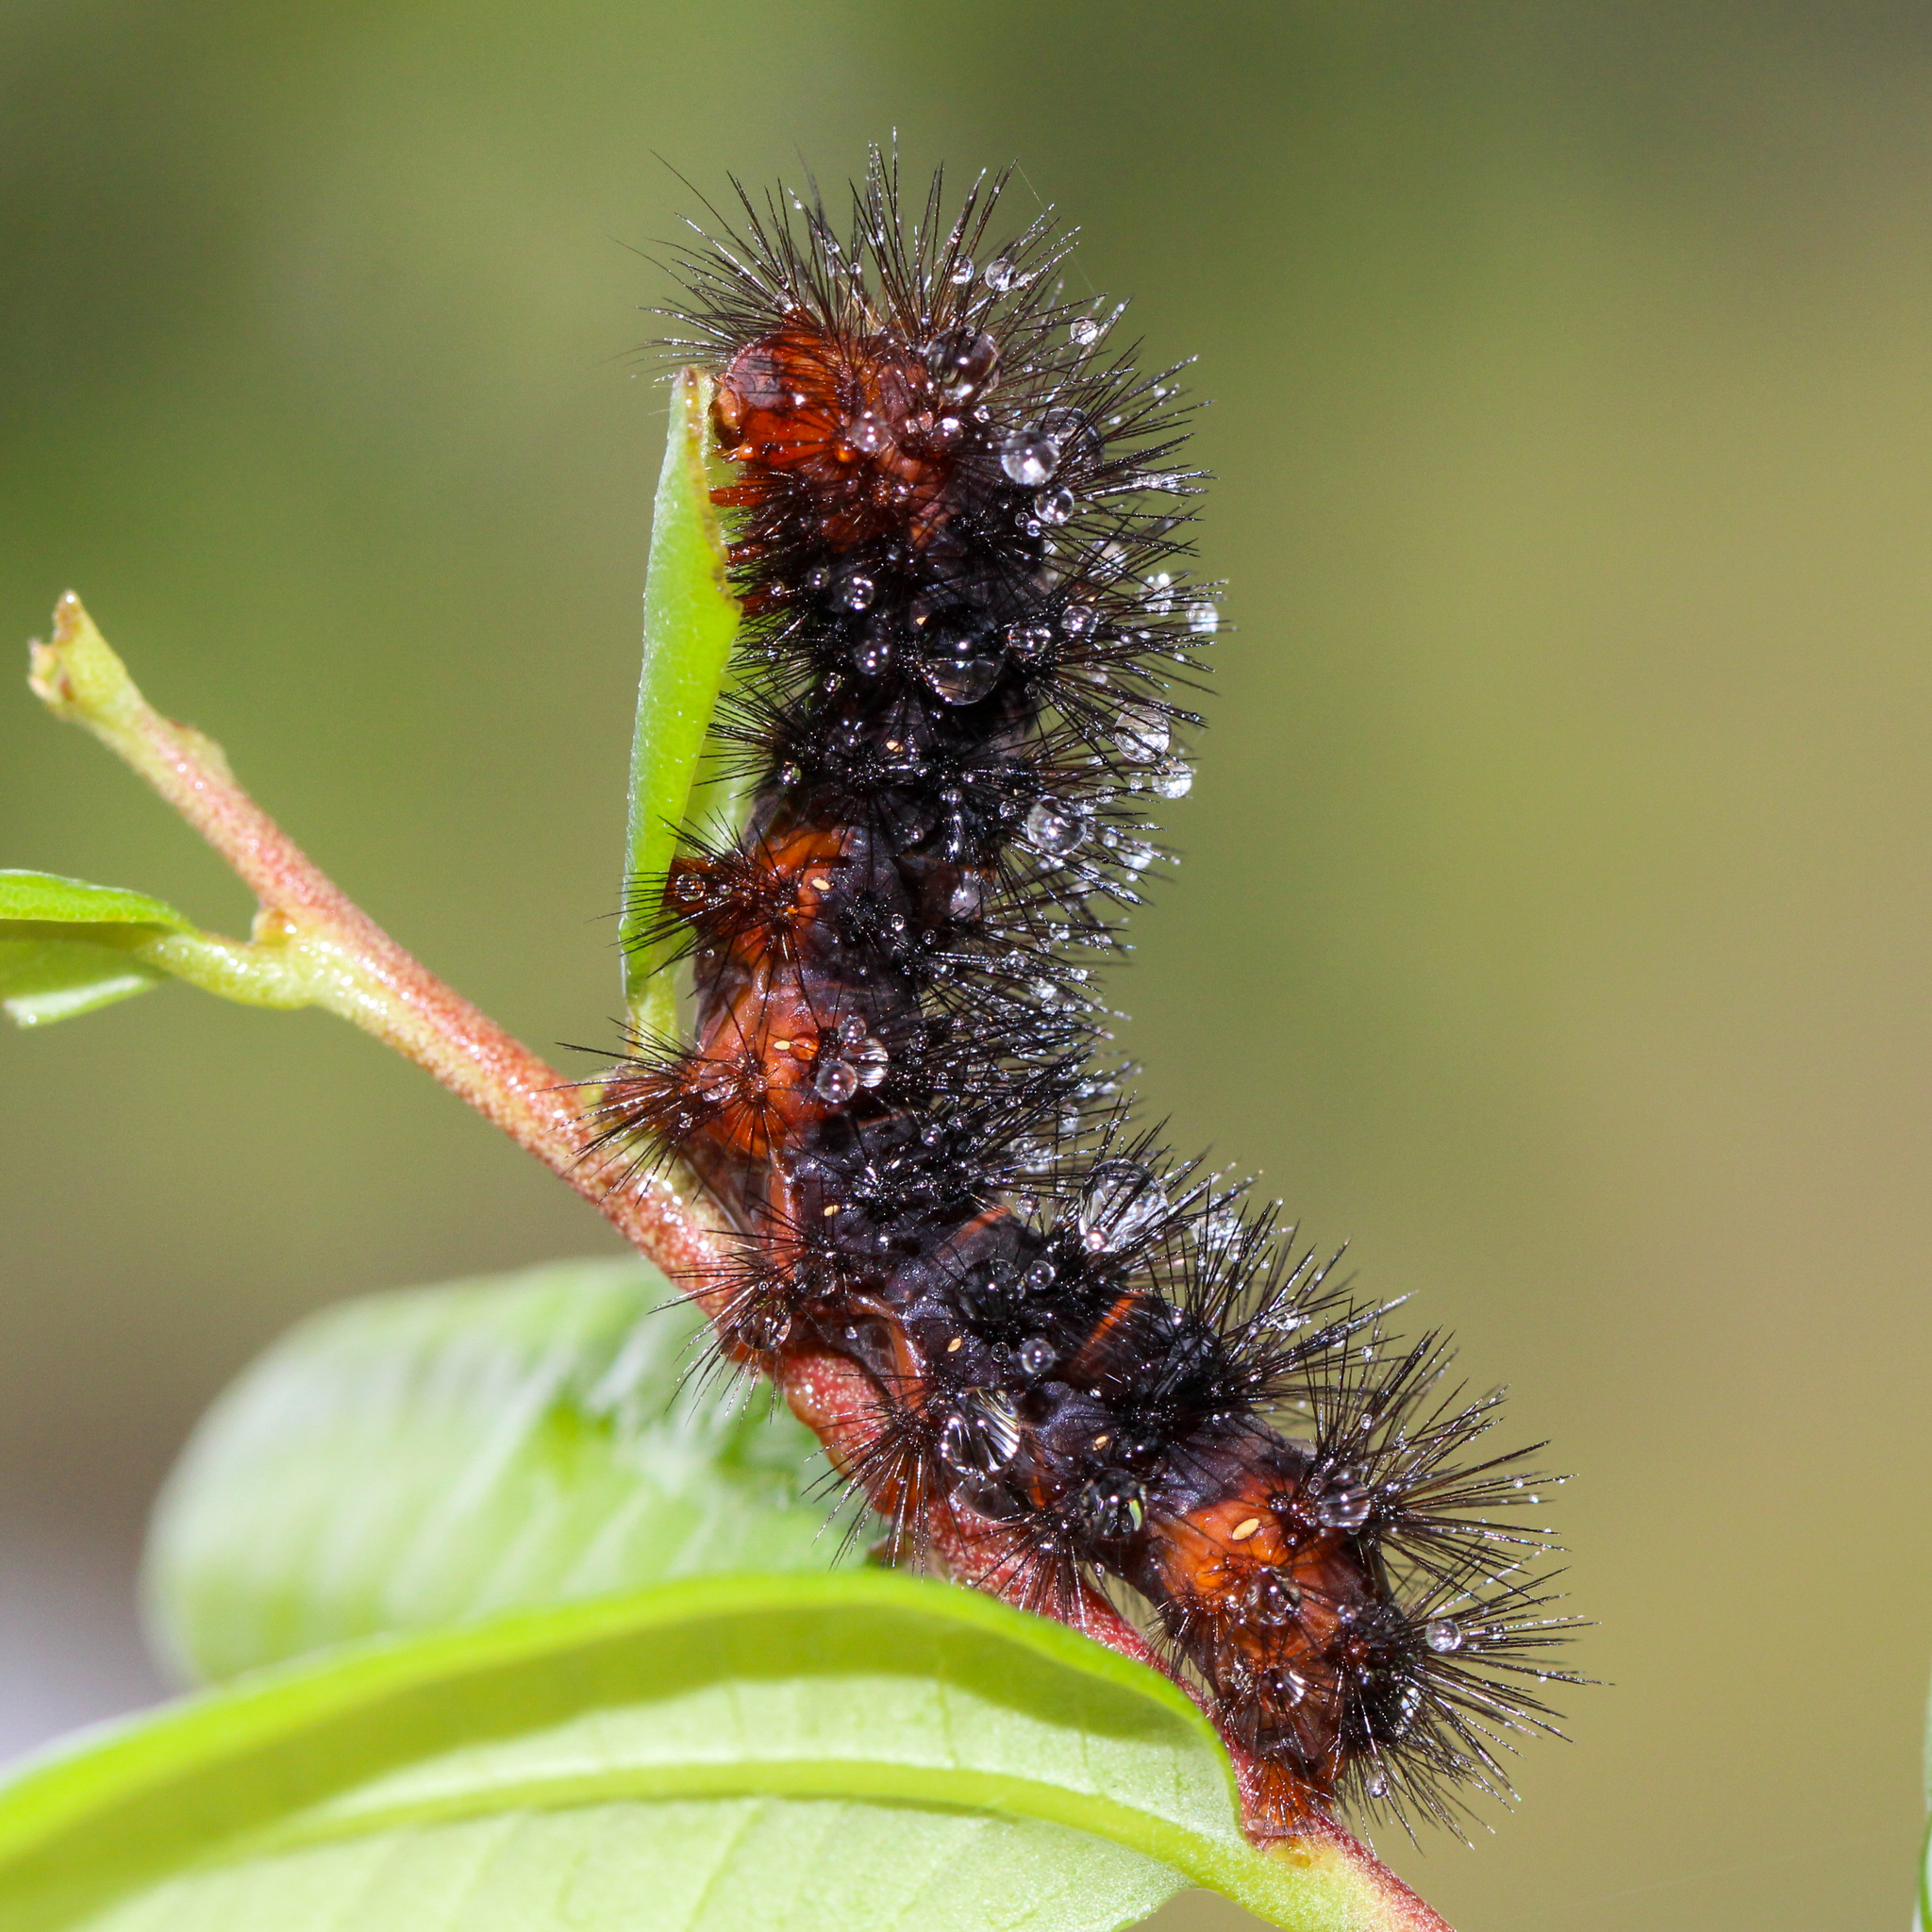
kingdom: Animalia
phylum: Arthropoda
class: Insecta
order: Lepidoptera
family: Erebidae
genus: Hypercompe
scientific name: Hypercompe scribonia
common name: Giant leopard moth
